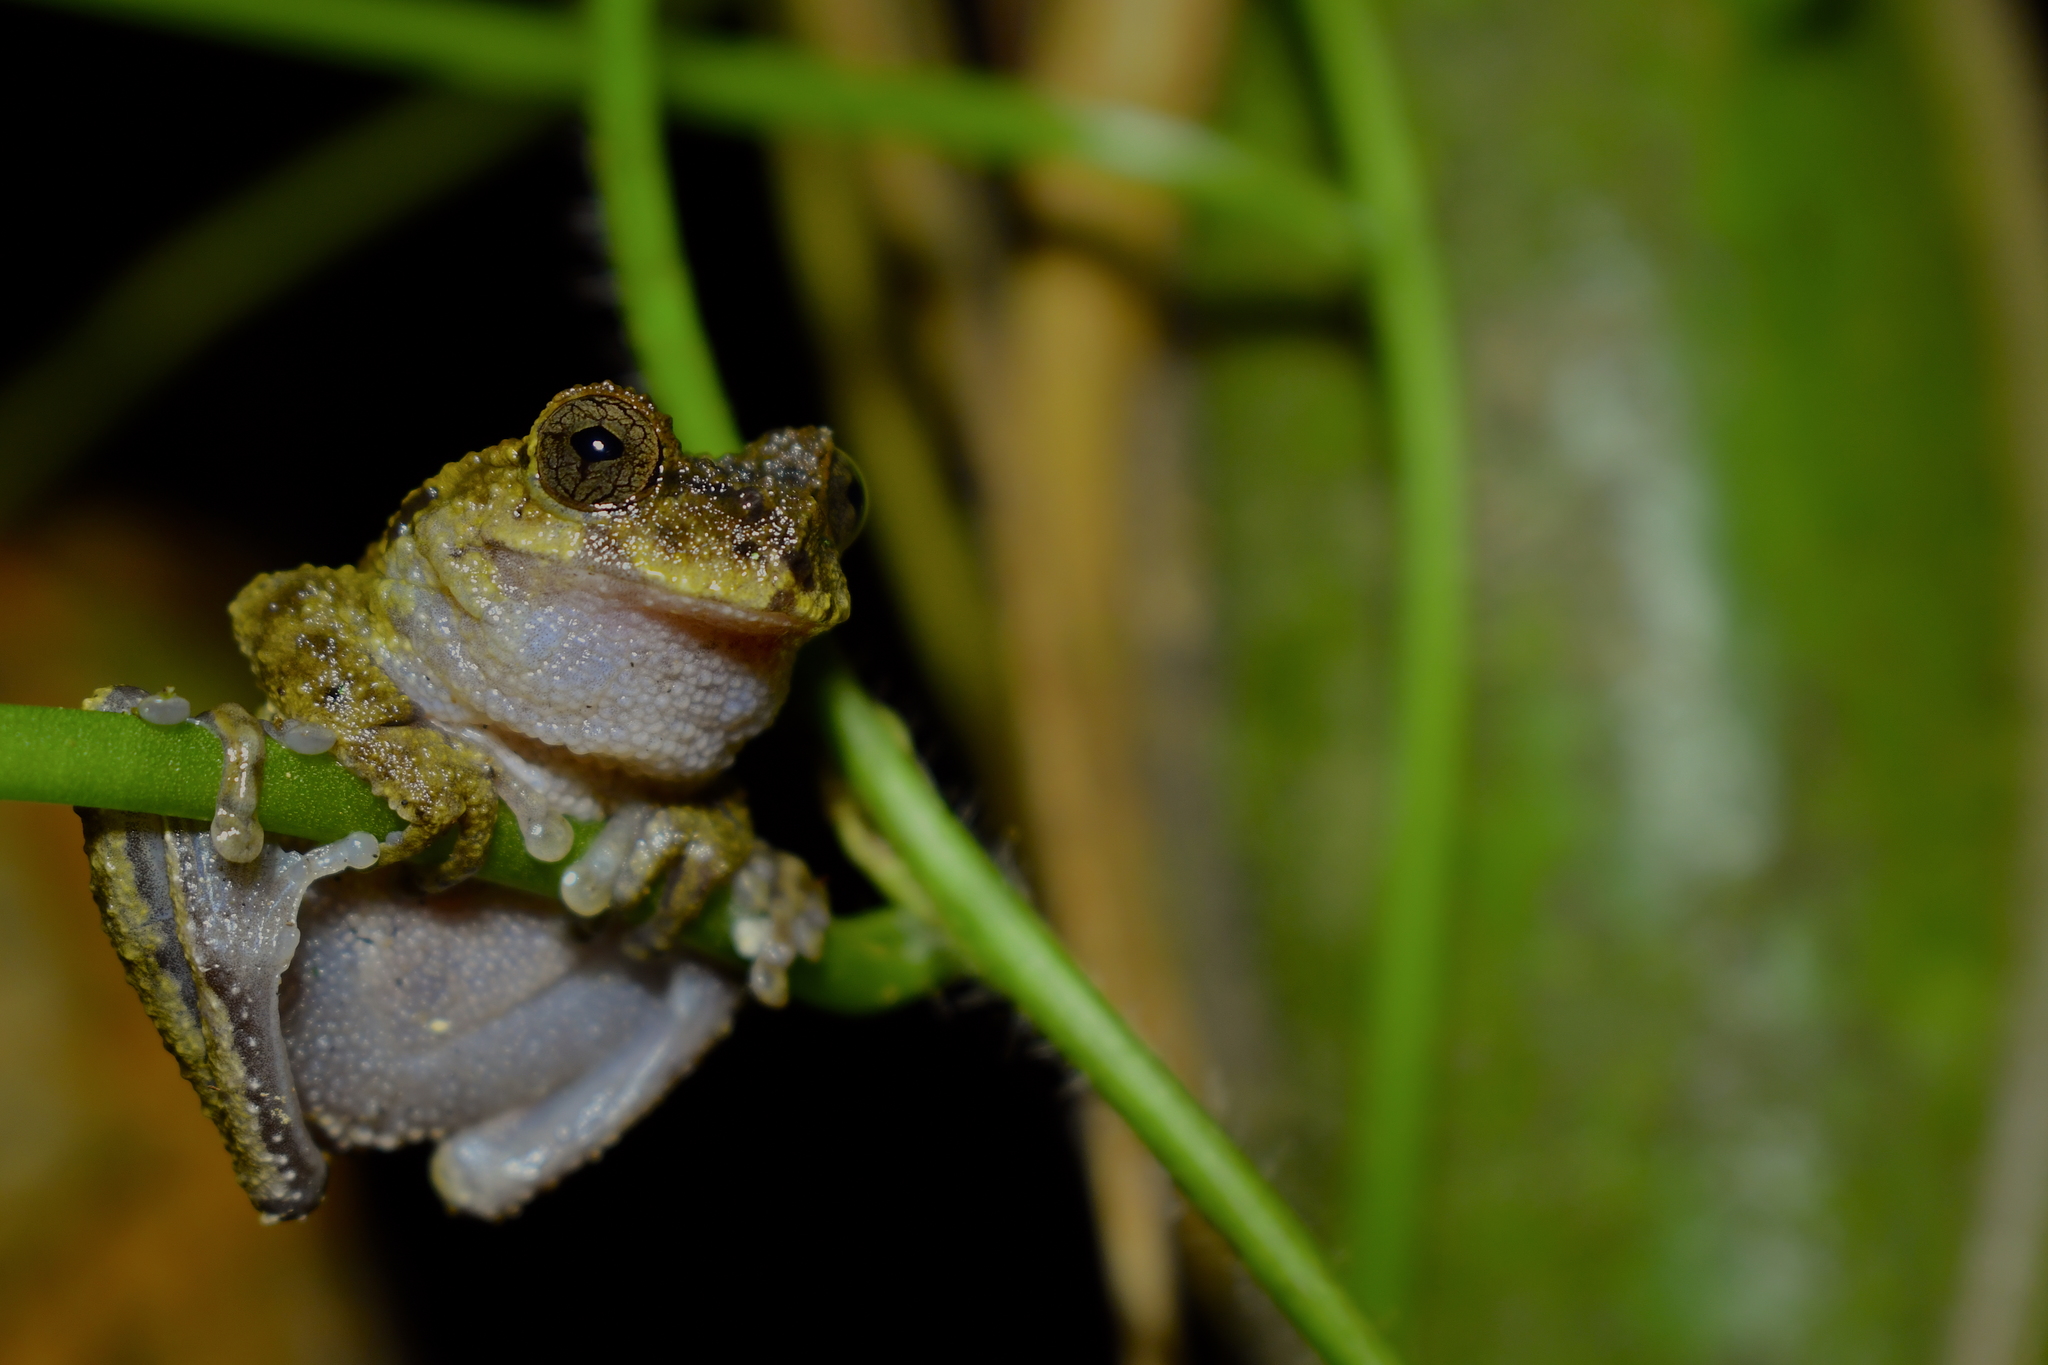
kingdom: Animalia
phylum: Chordata
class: Amphibia
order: Anura
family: Hylidae
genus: Plectrohyla
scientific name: Plectrohyla matudai
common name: Matuda's spikethumb frog
